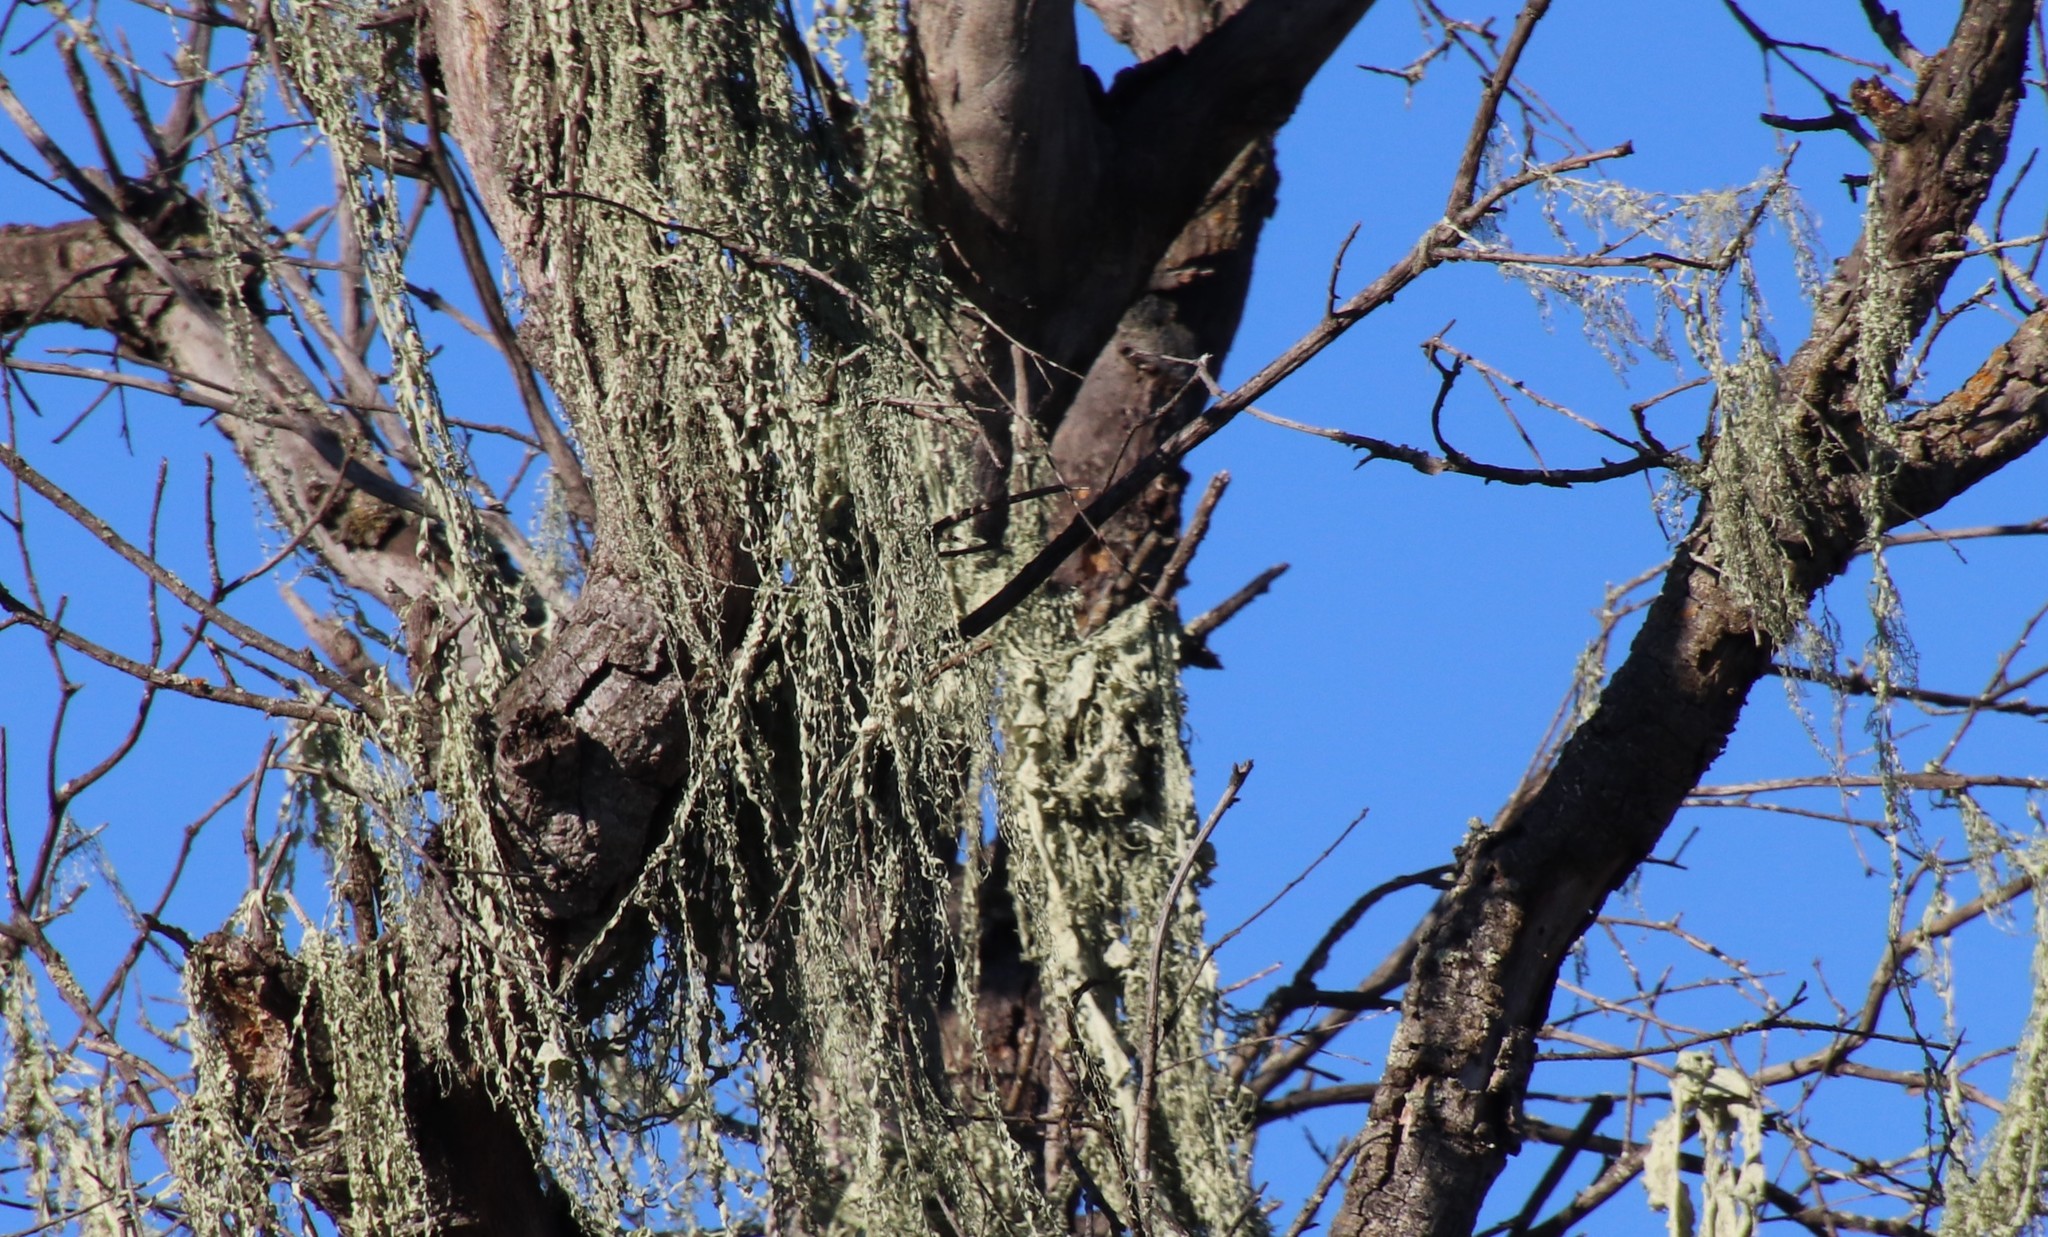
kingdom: Fungi
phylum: Ascomycota
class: Lecanoromycetes
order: Lecanorales
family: Ramalinaceae
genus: Ramalina
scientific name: Ramalina menziesii
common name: Lace lichen
